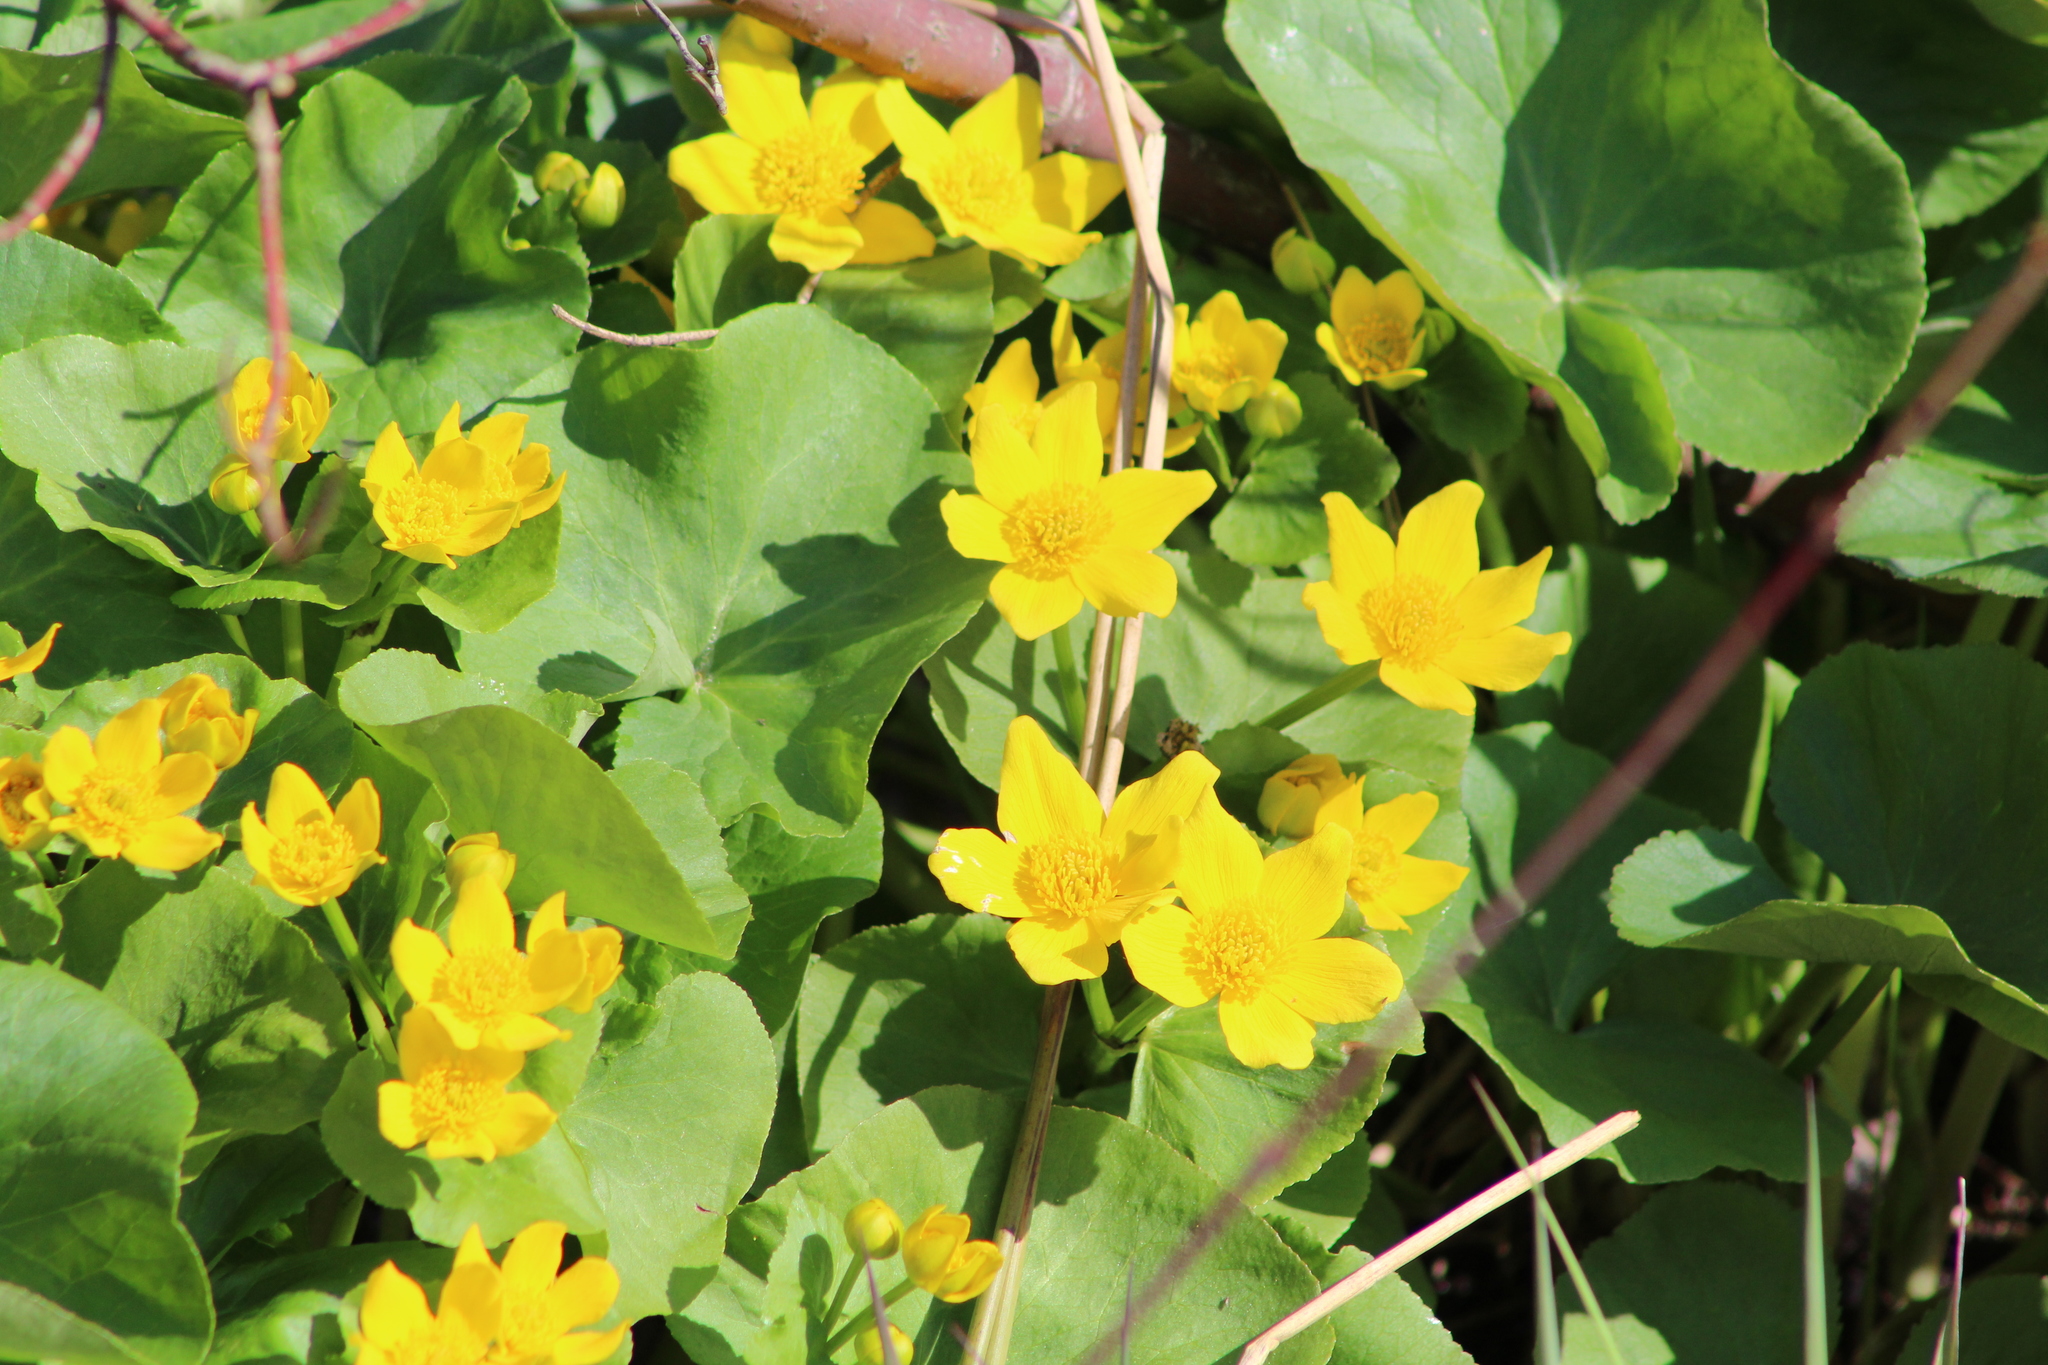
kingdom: Plantae
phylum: Tracheophyta
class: Magnoliopsida
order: Ranunculales
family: Ranunculaceae
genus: Caltha
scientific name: Caltha palustris
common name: Marsh marigold
